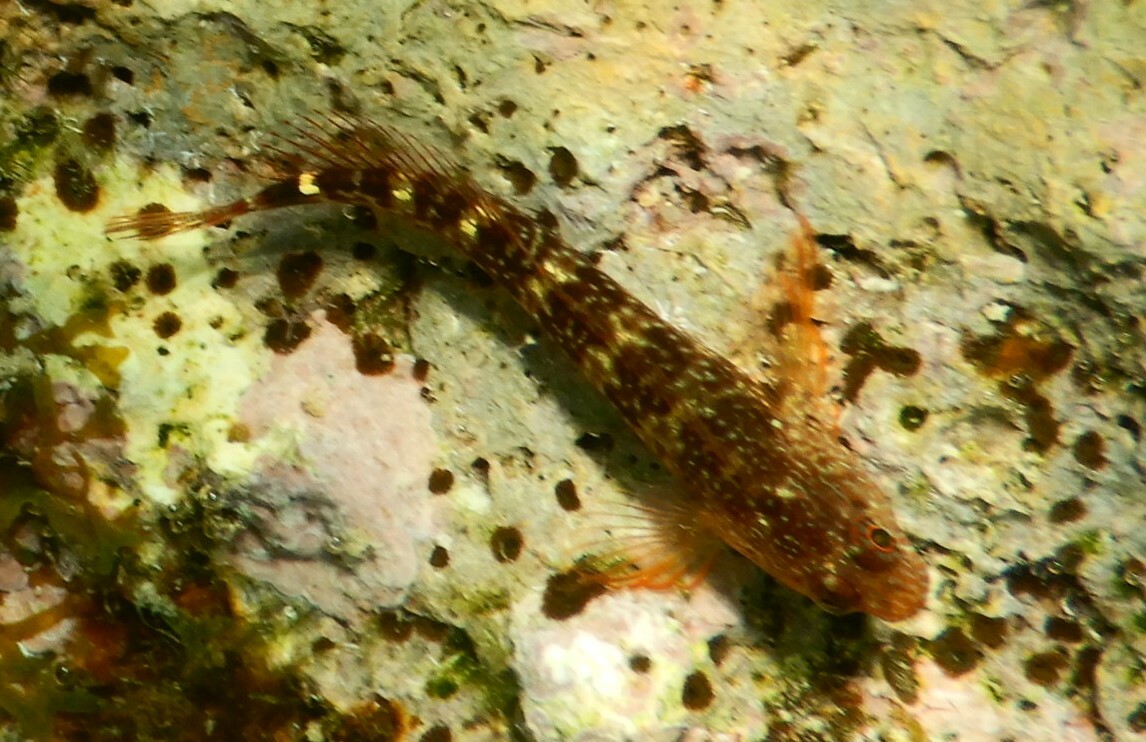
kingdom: Animalia
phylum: Chordata
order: Perciformes
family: Blenniidae
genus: Parablennius
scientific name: Parablennius zvonimiri
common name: Red blenny
